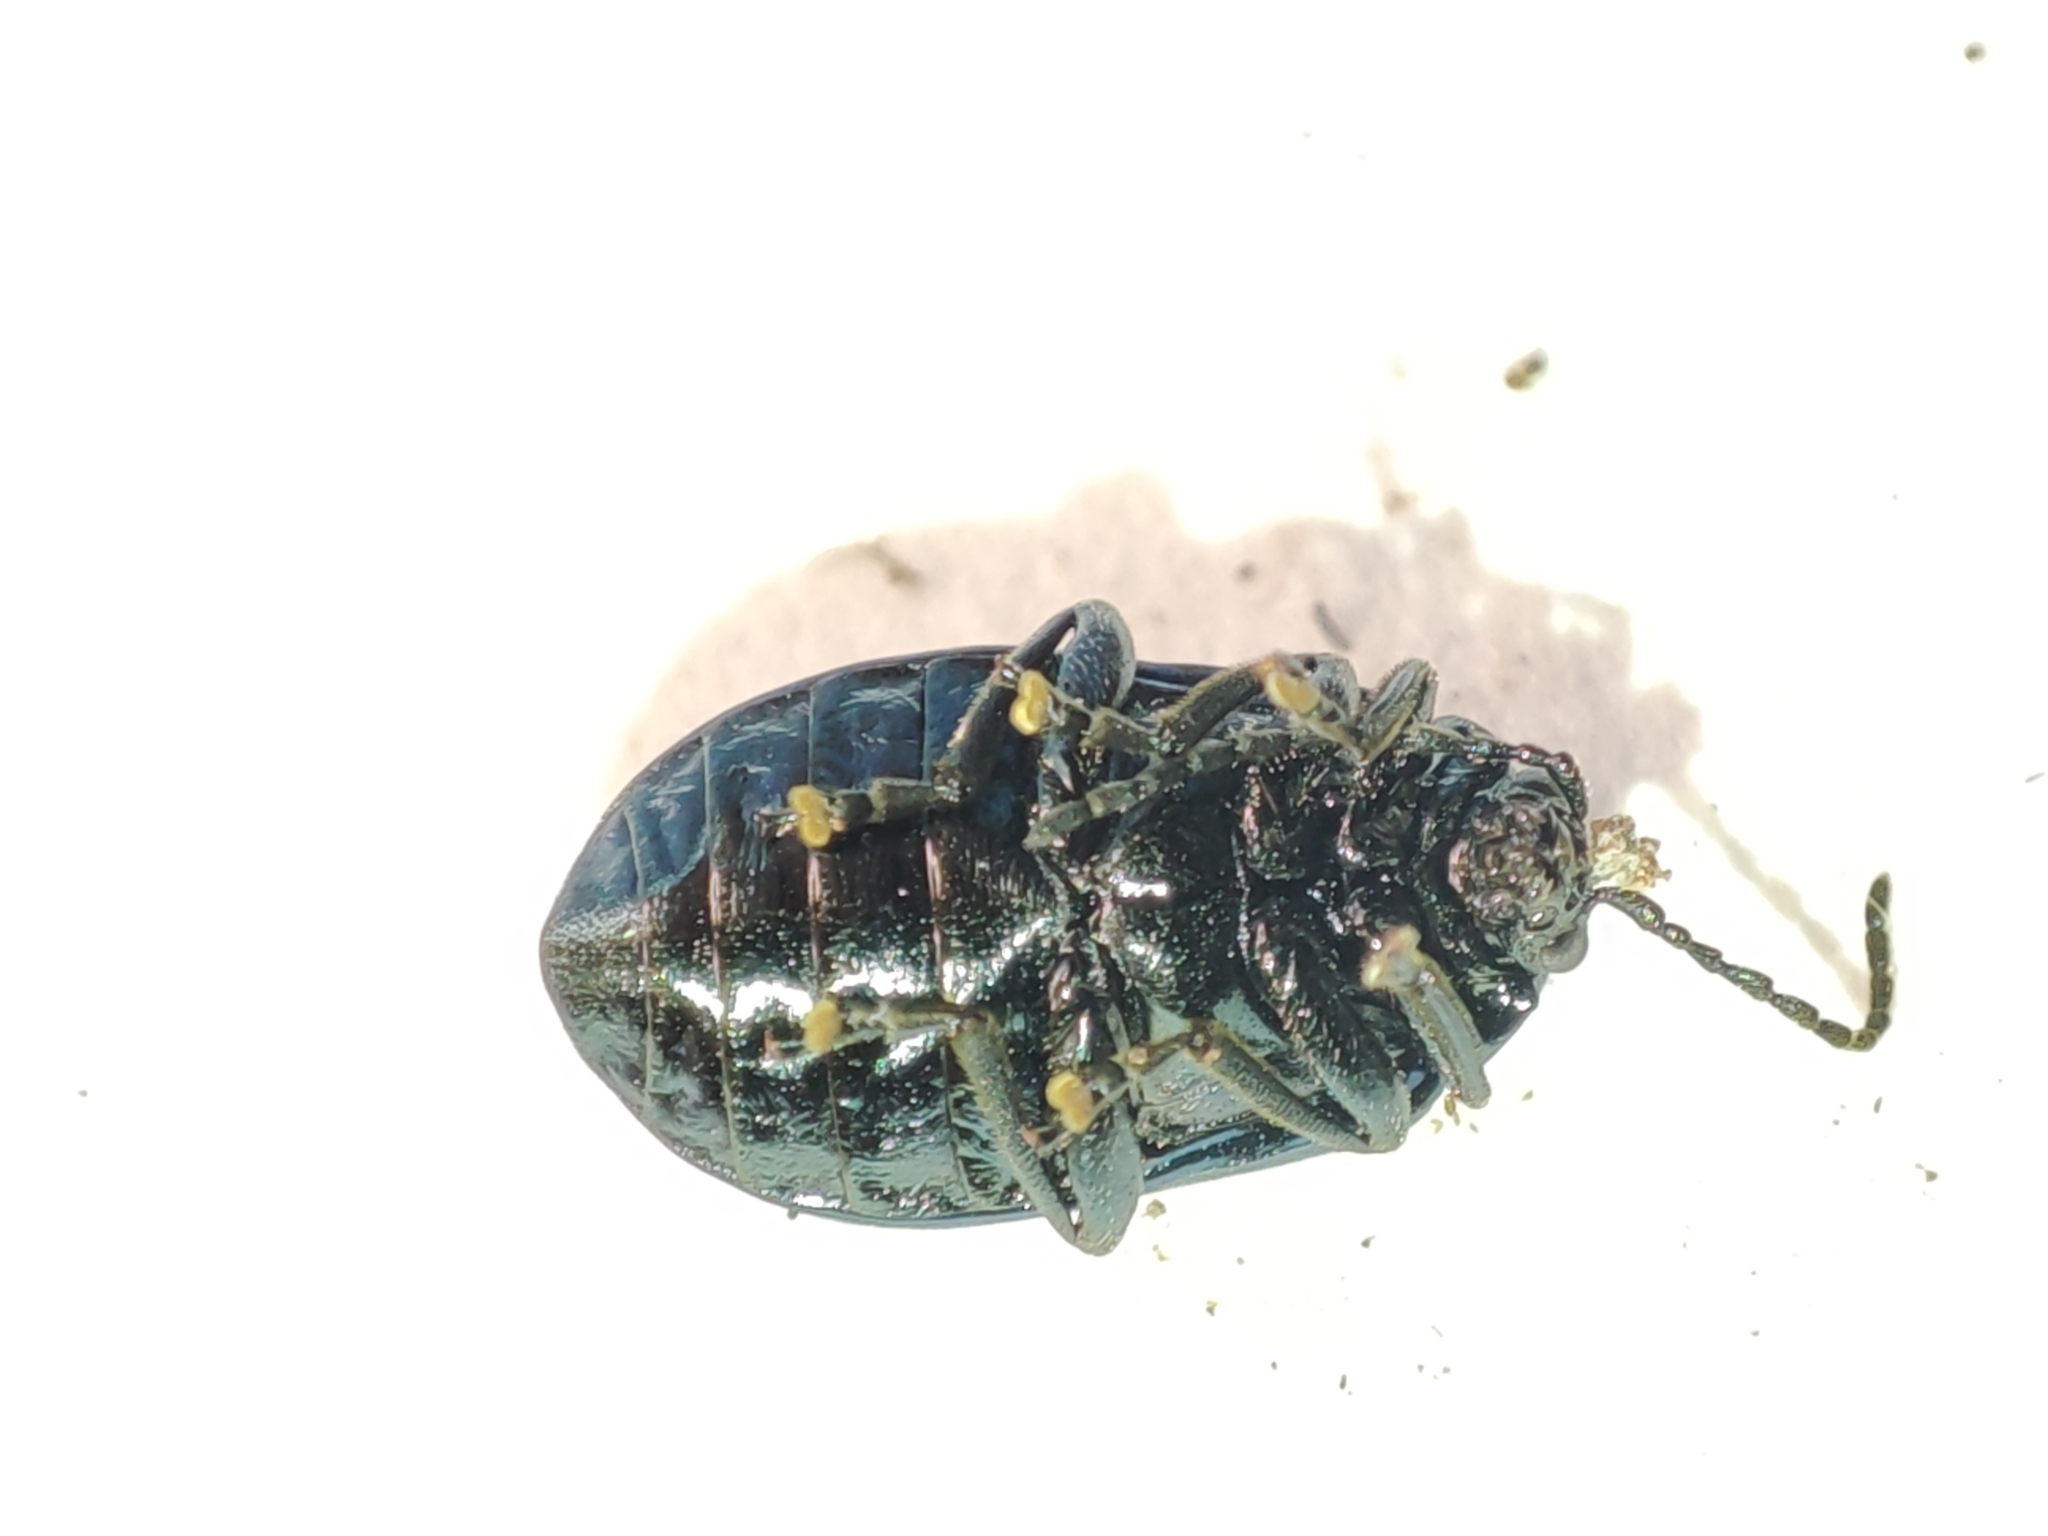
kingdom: Animalia
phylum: Arthropoda
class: Insecta
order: Coleoptera
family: Chrysomelidae
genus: Agelastica
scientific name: Agelastica alni
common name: Alder leaf beetle
